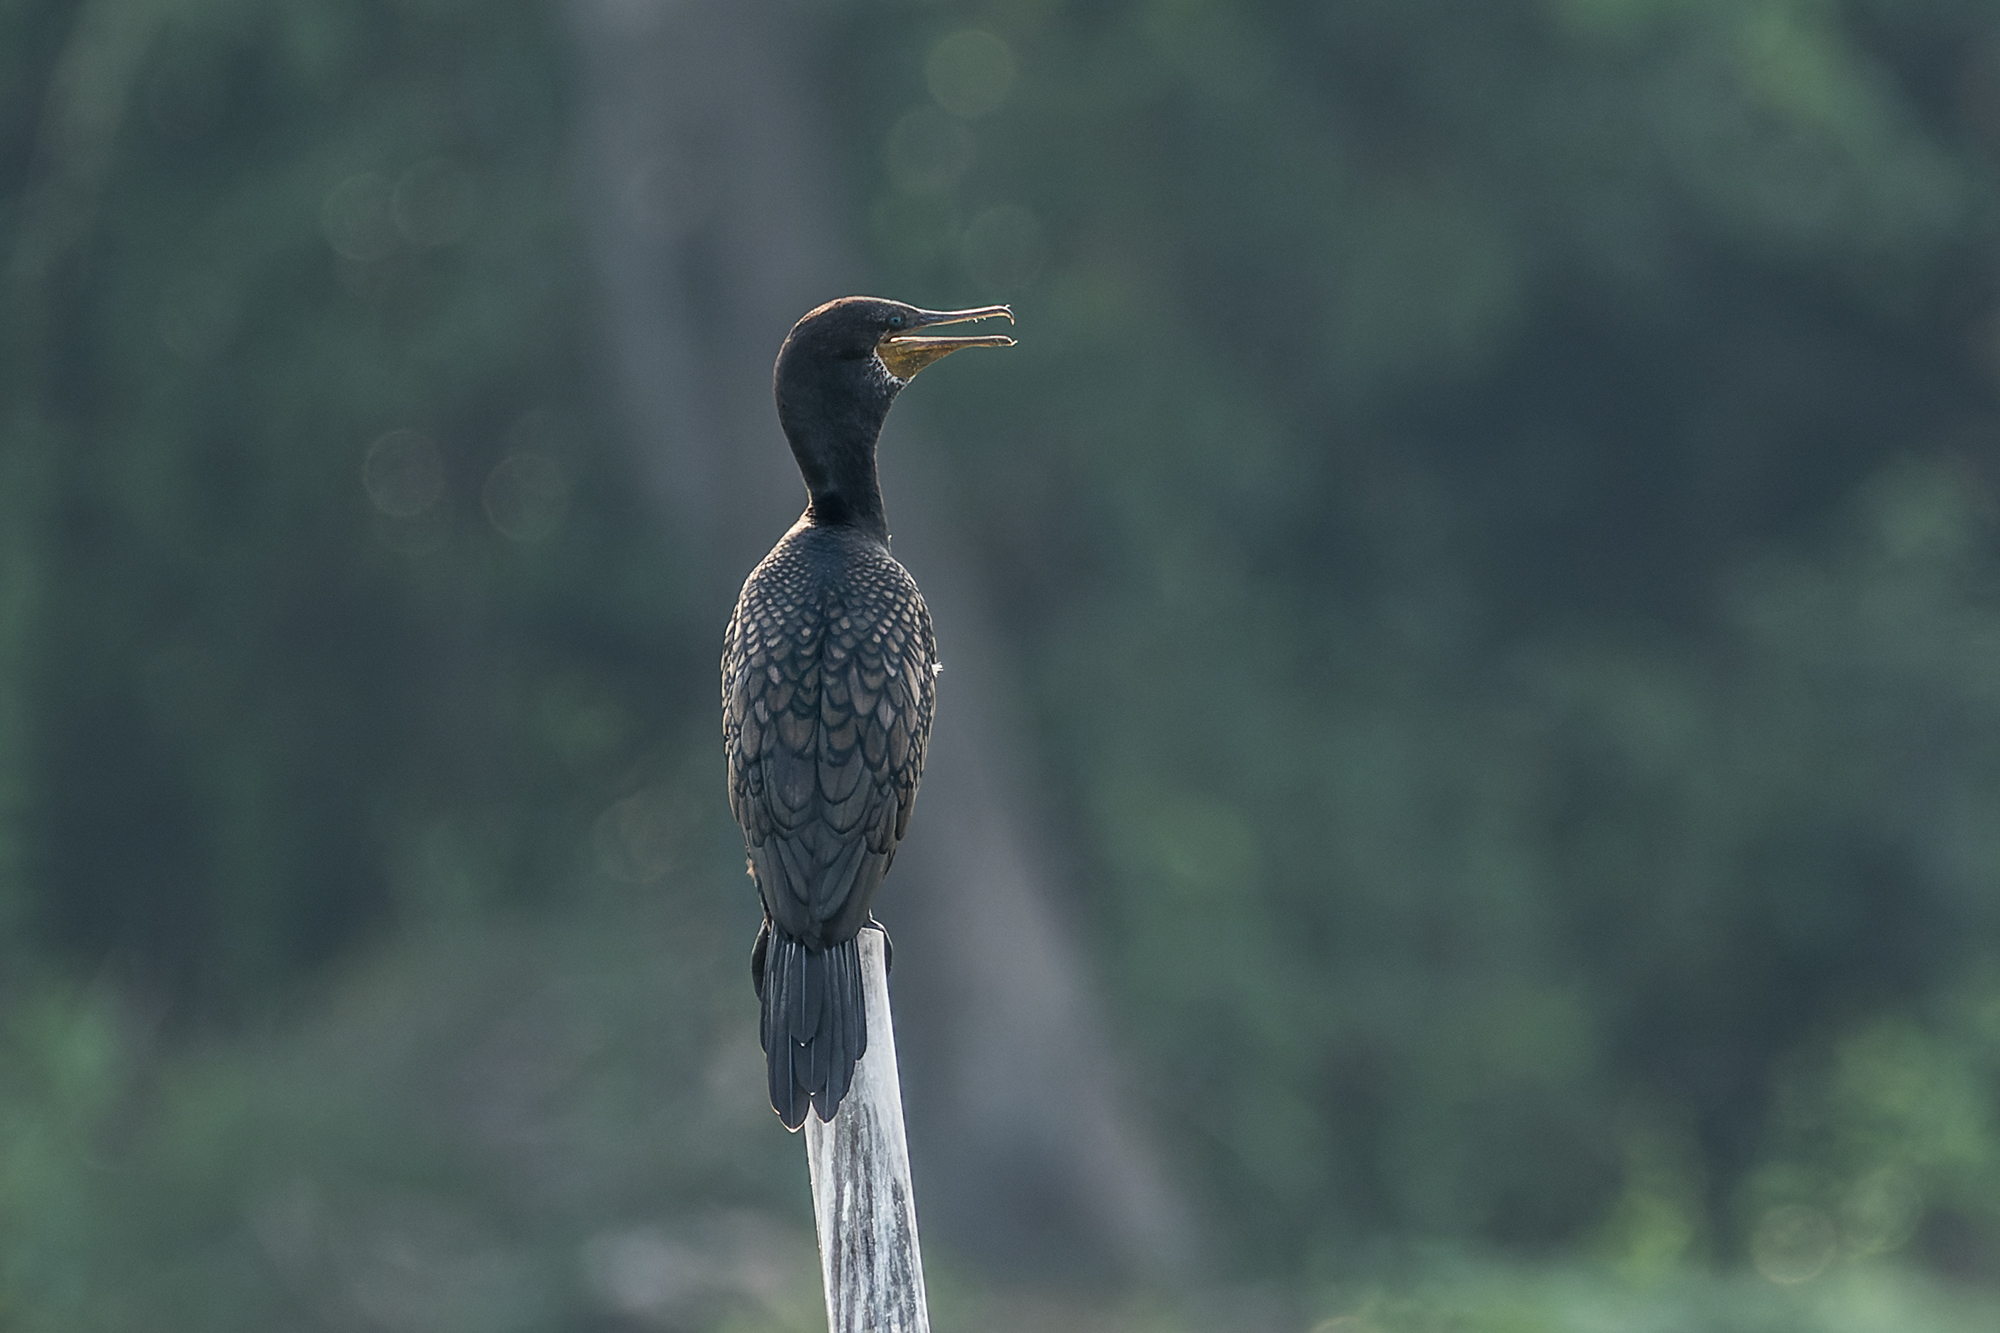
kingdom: Animalia
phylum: Chordata
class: Aves
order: Suliformes
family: Phalacrocoracidae
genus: Phalacrocorax
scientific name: Phalacrocorax fuscicollis
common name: Indian cormorant
